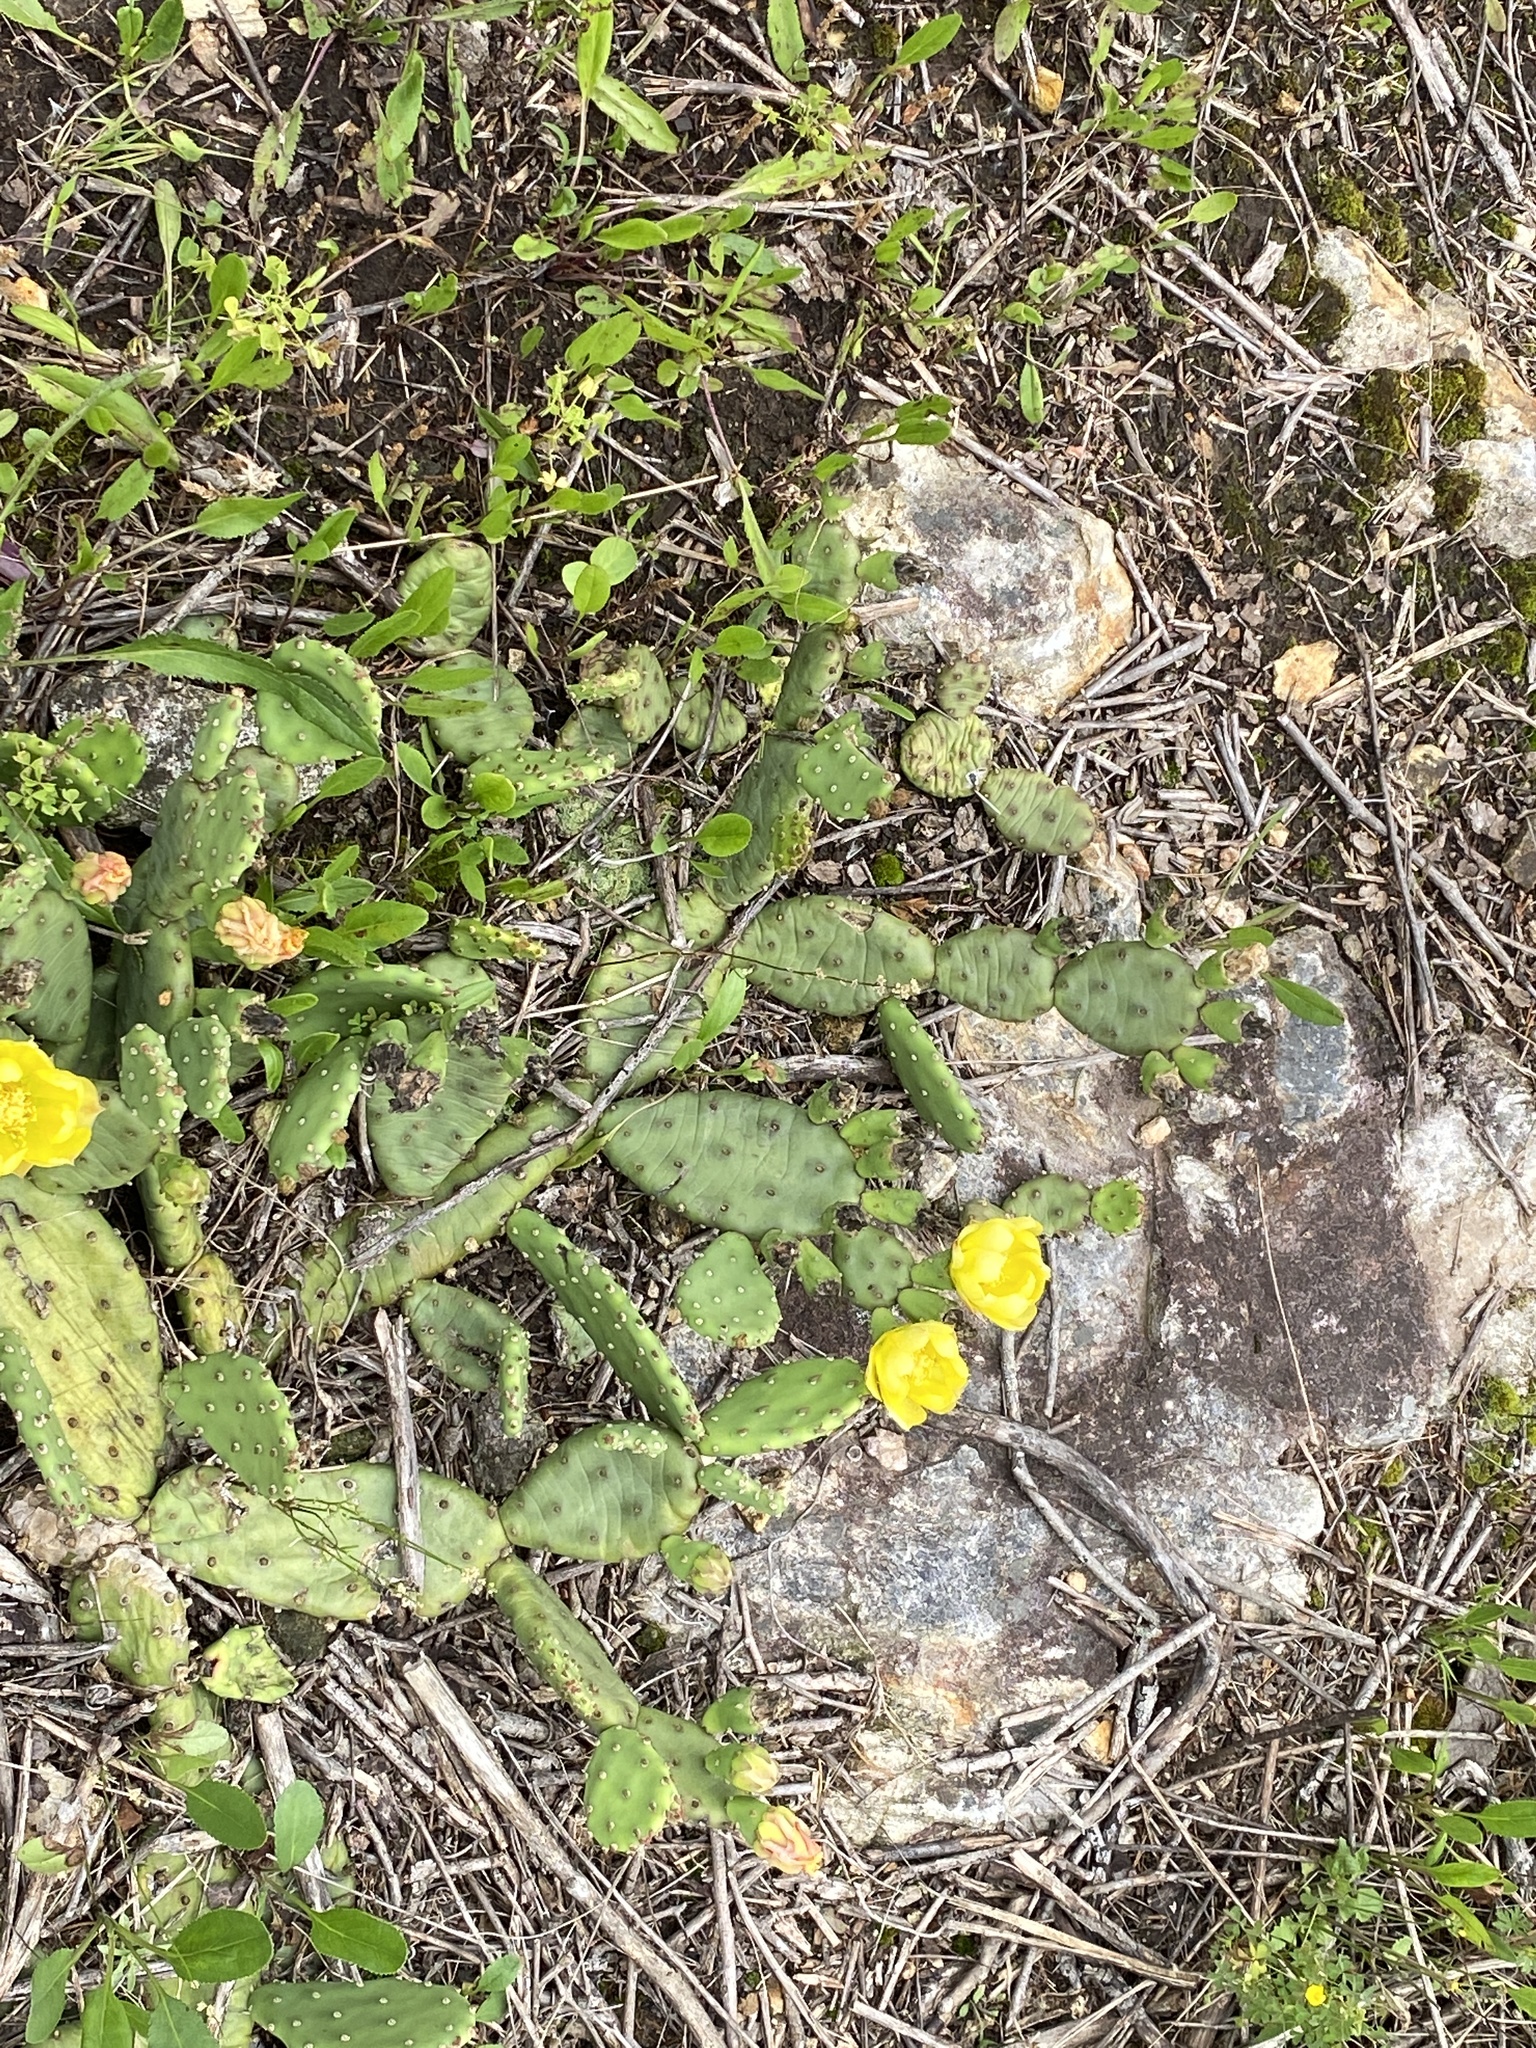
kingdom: Plantae
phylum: Tracheophyta
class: Magnoliopsida
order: Caryophyllales
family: Cactaceae
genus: Opuntia
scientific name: Opuntia mesacantha
